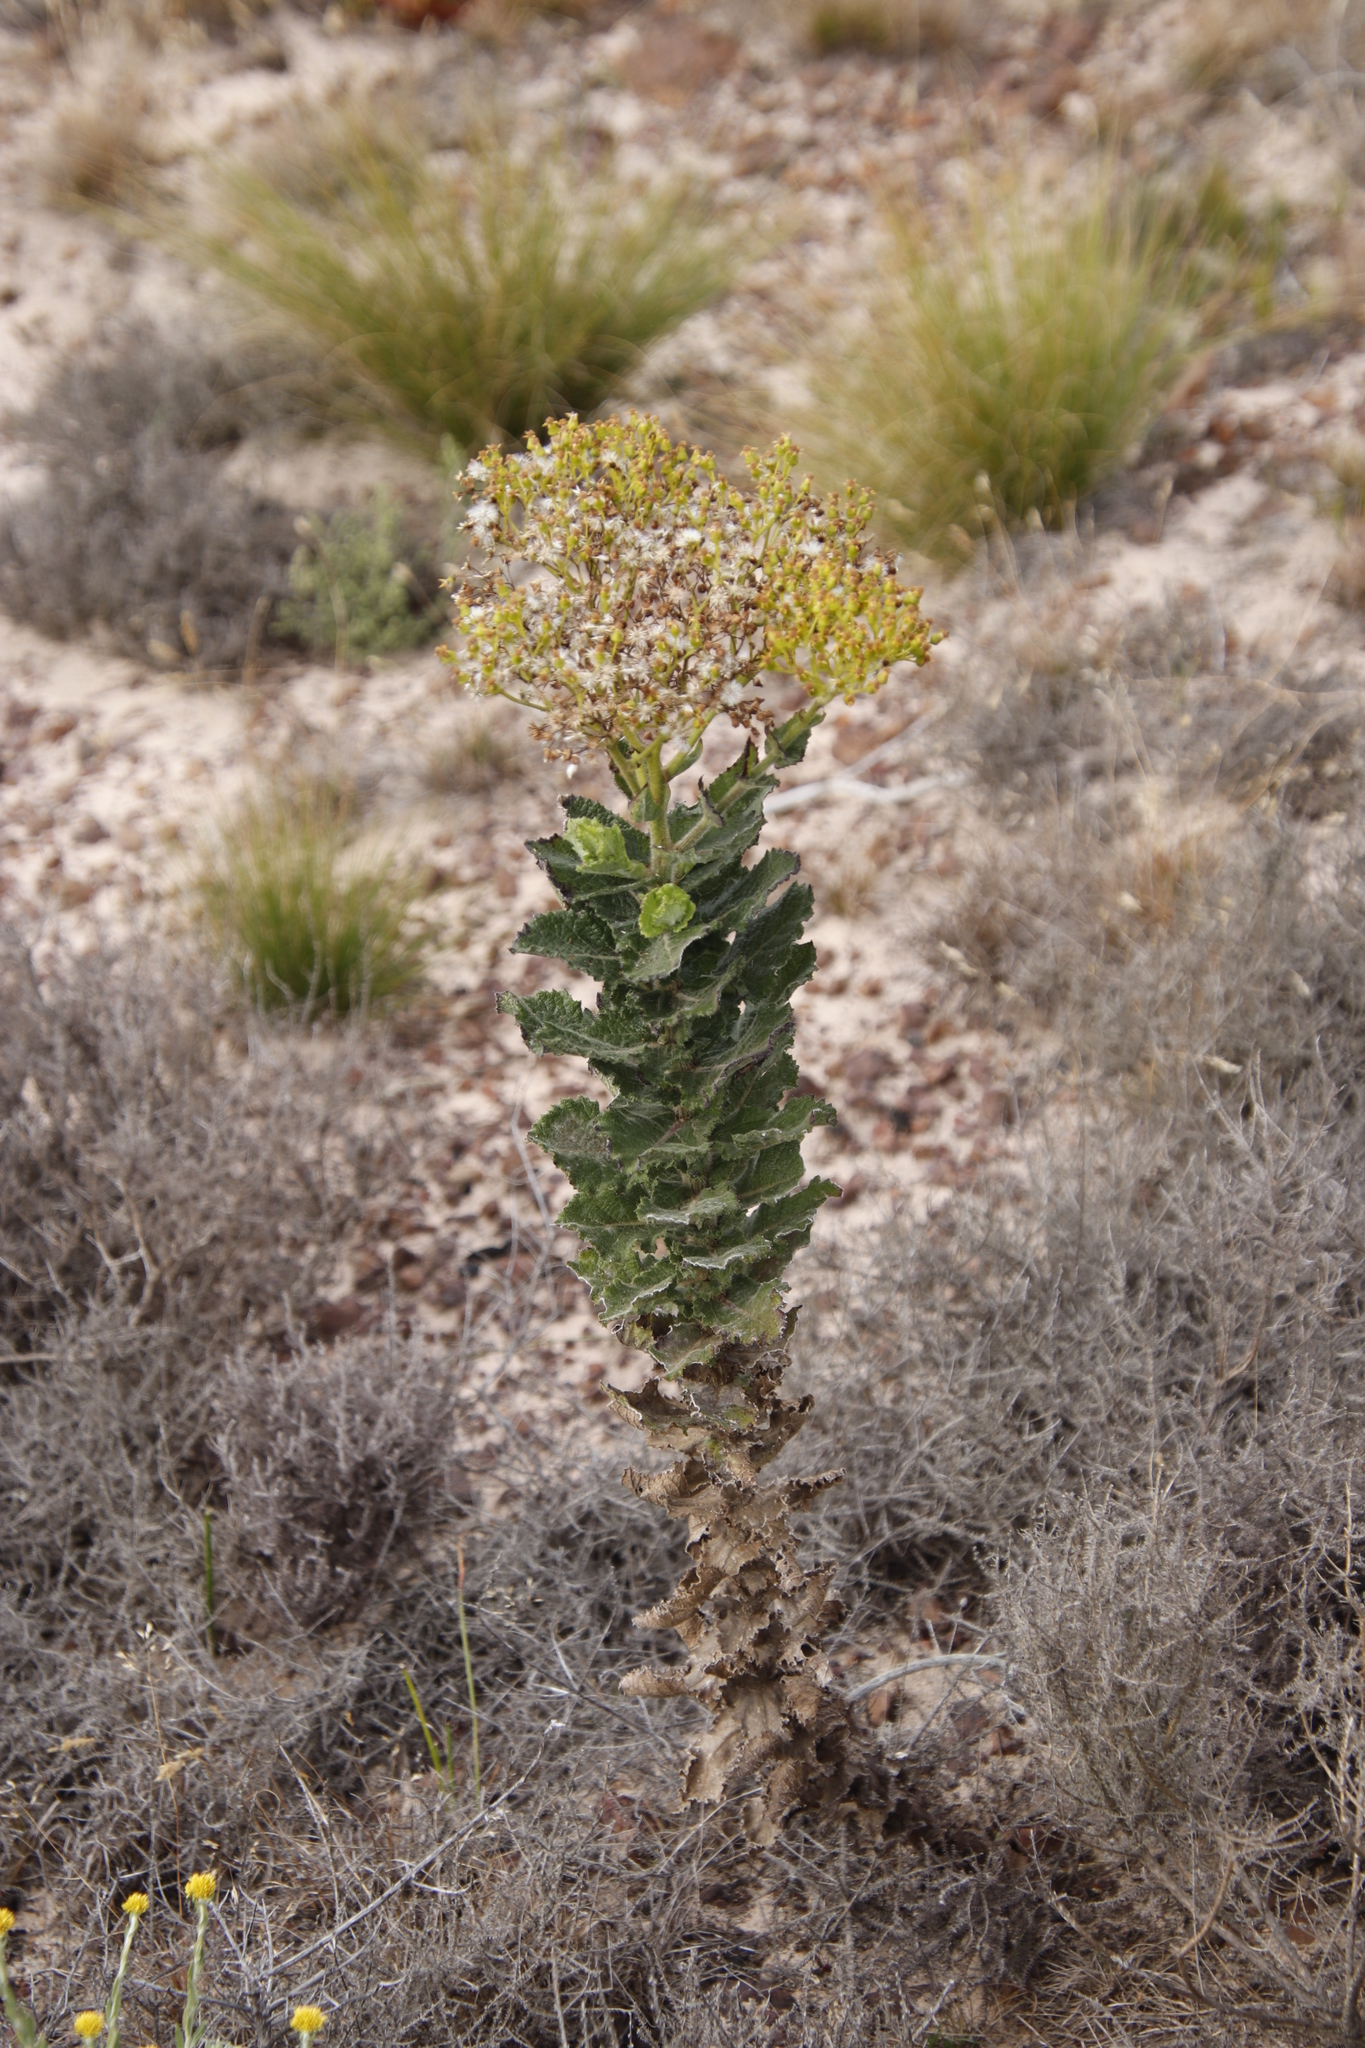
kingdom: Plantae
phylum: Tracheophyta
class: Magnoliopsida
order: Asterales
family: Asteraceae
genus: Senecio
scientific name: Senecio rigidus
